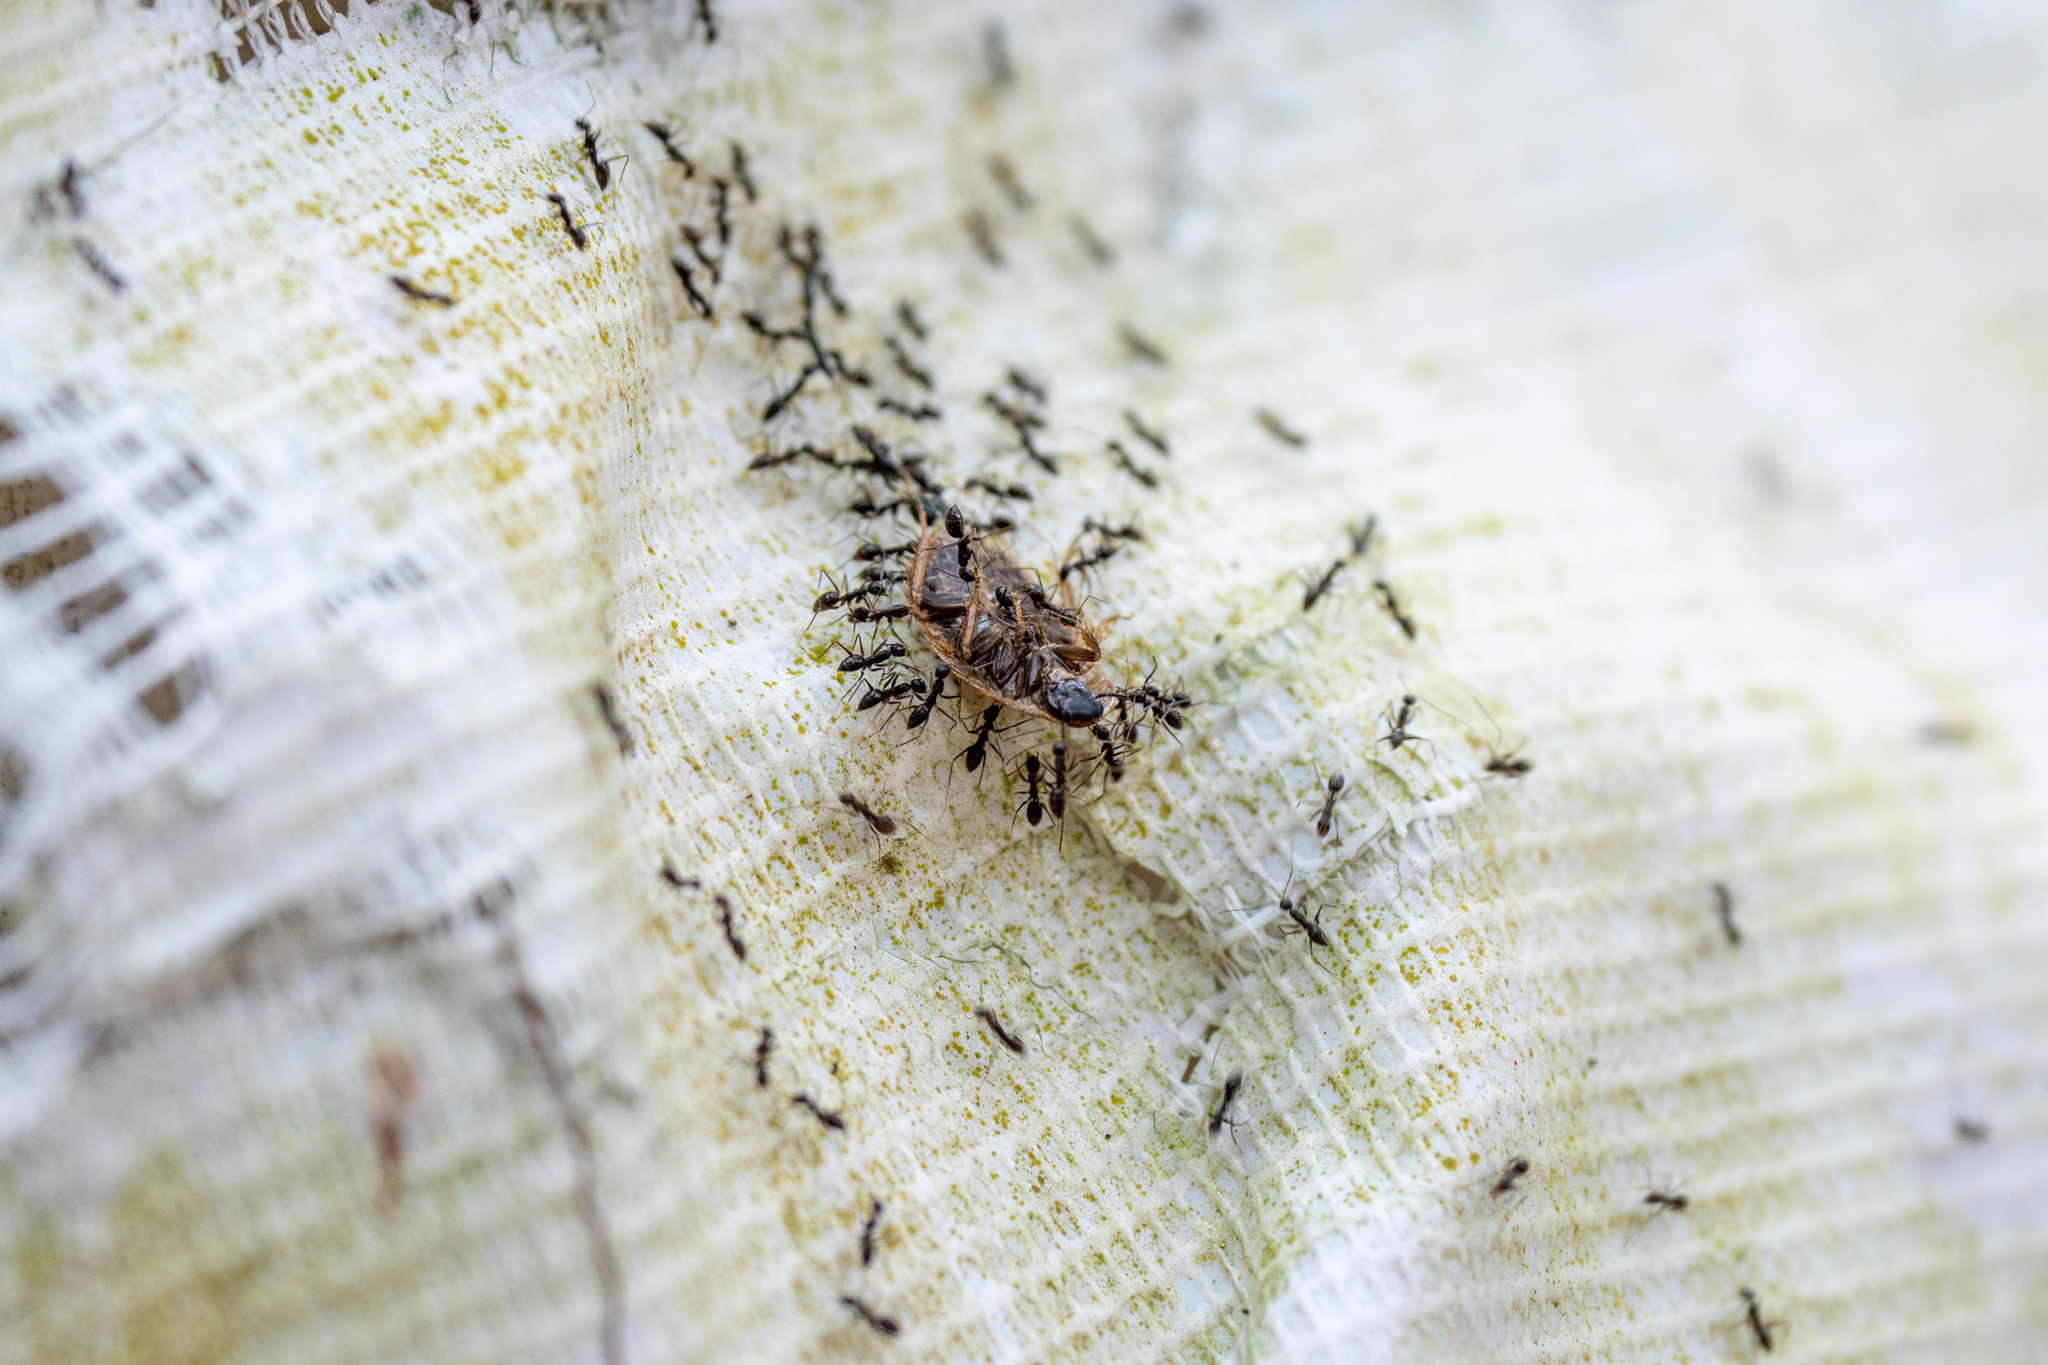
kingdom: Animalia
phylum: Arthropoda
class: Insecta
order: Hymenoptera
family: Formicidae
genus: Paratrechina
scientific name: Paratrechina longicornis
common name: Longhorned crazy ant
